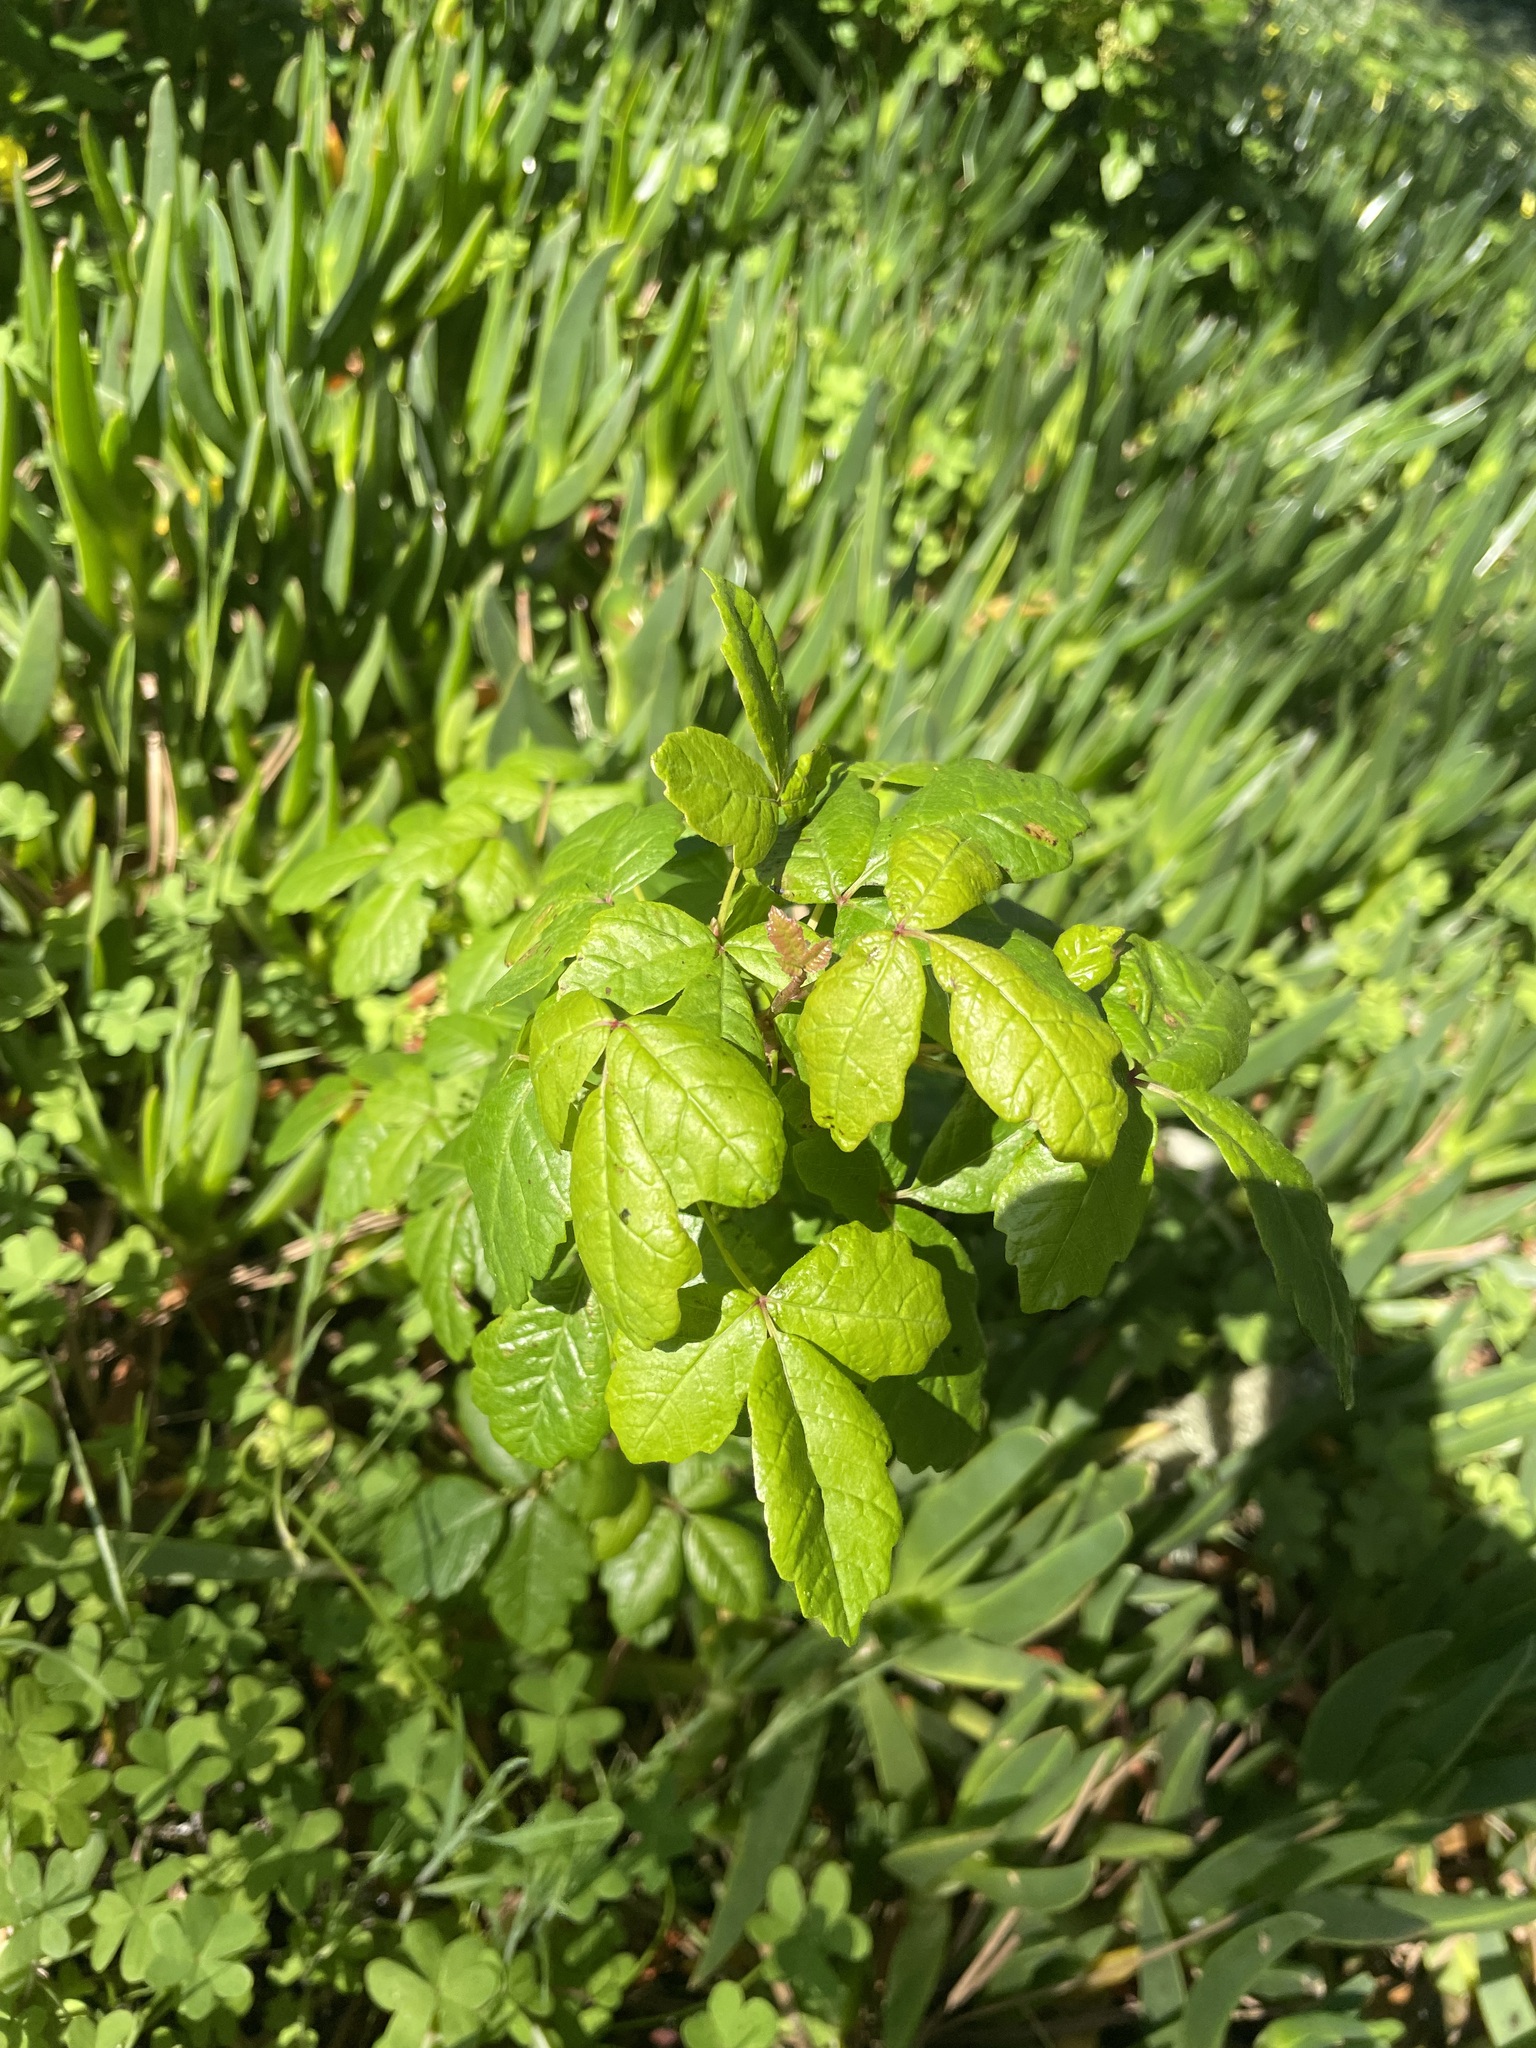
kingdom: Plantae
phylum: Tracheophyta
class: Magnoliopsida
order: Sapindales
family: Anacardiaceae
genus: Toxicodendron
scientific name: Toxicodendron diversilobum
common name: Pacific poison-oak
